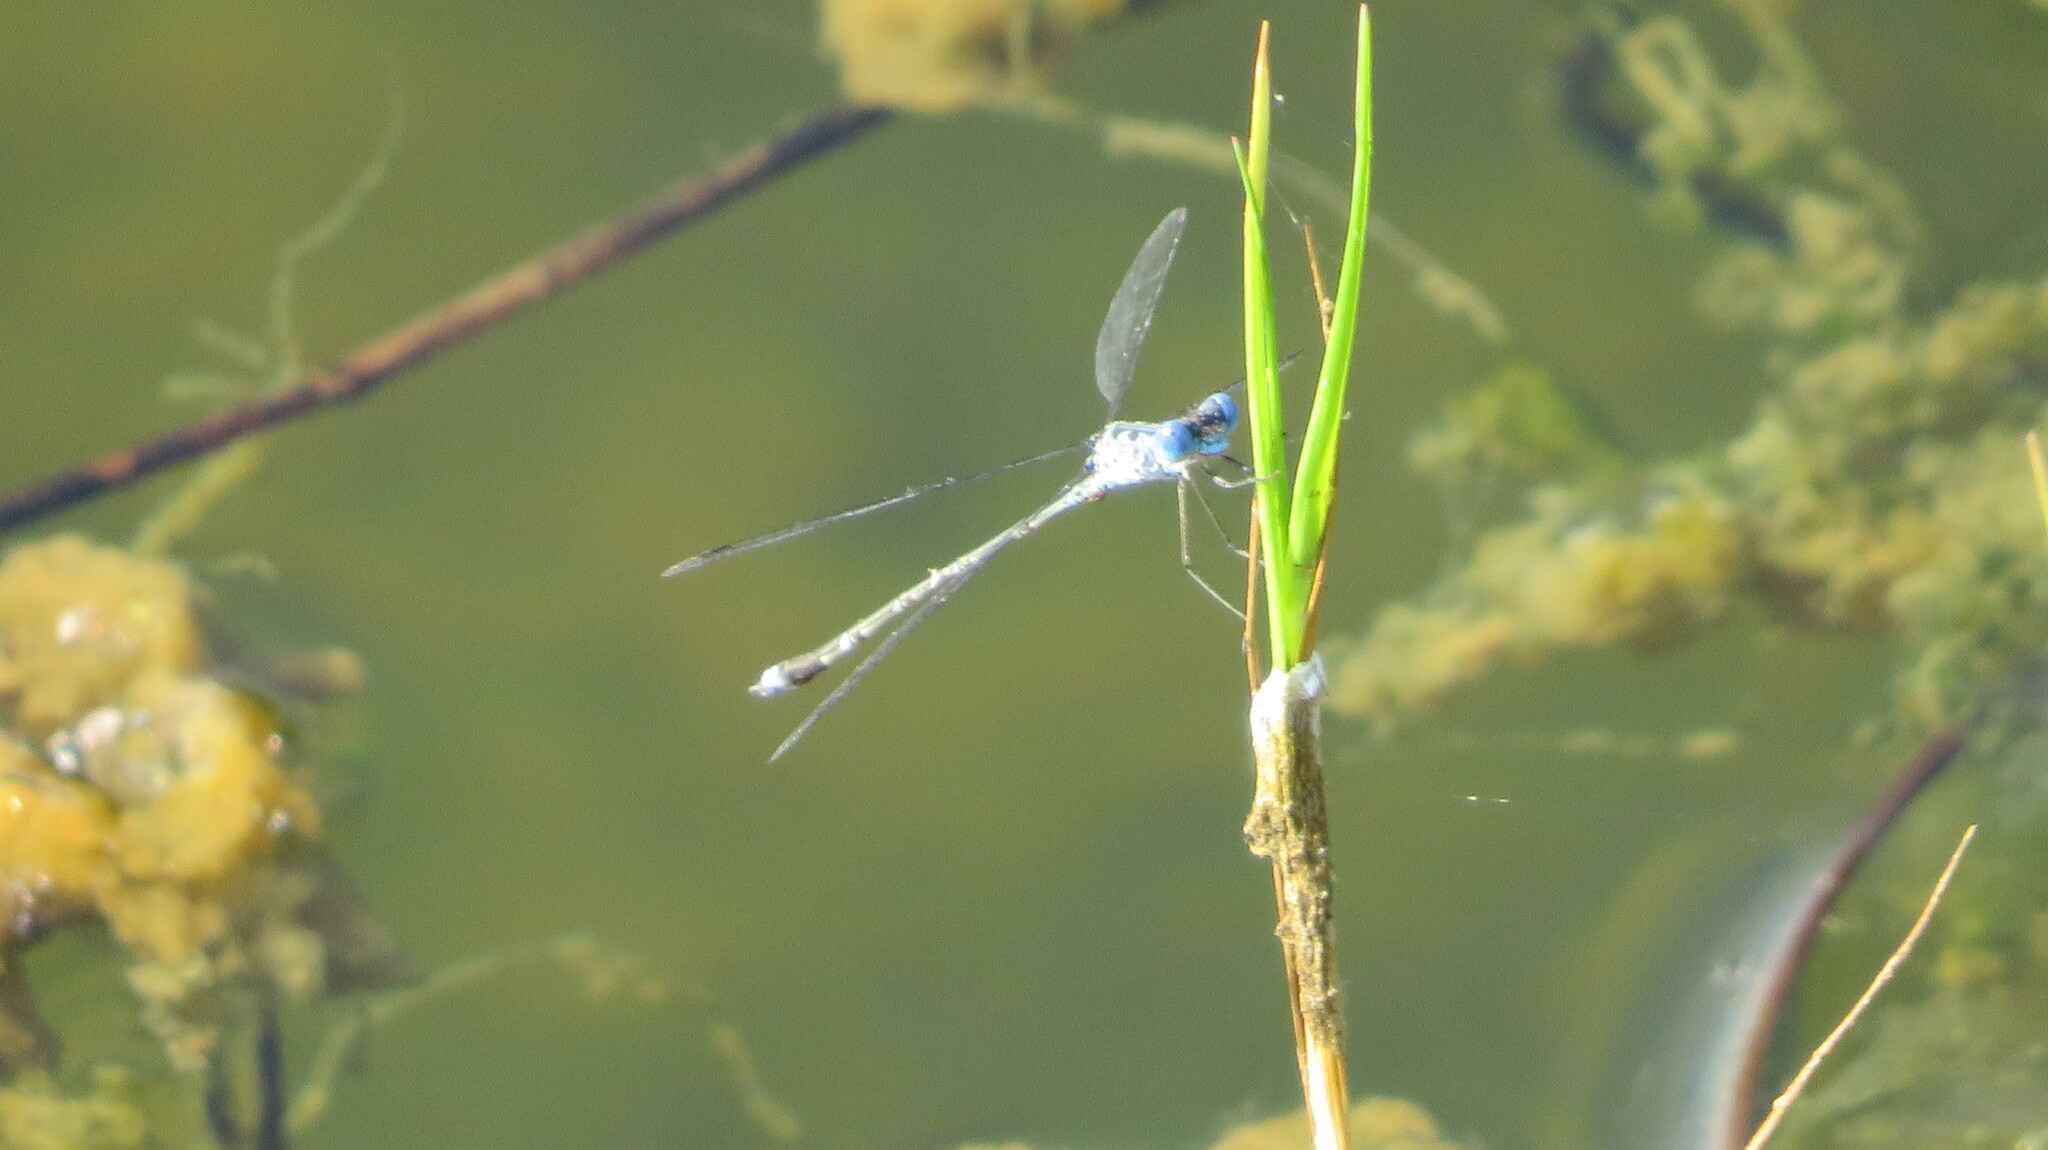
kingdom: Animalia
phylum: Arthropoda
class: Insecta
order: Odonata
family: Lestidae
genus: Lestes
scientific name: Lestes praemorsus
